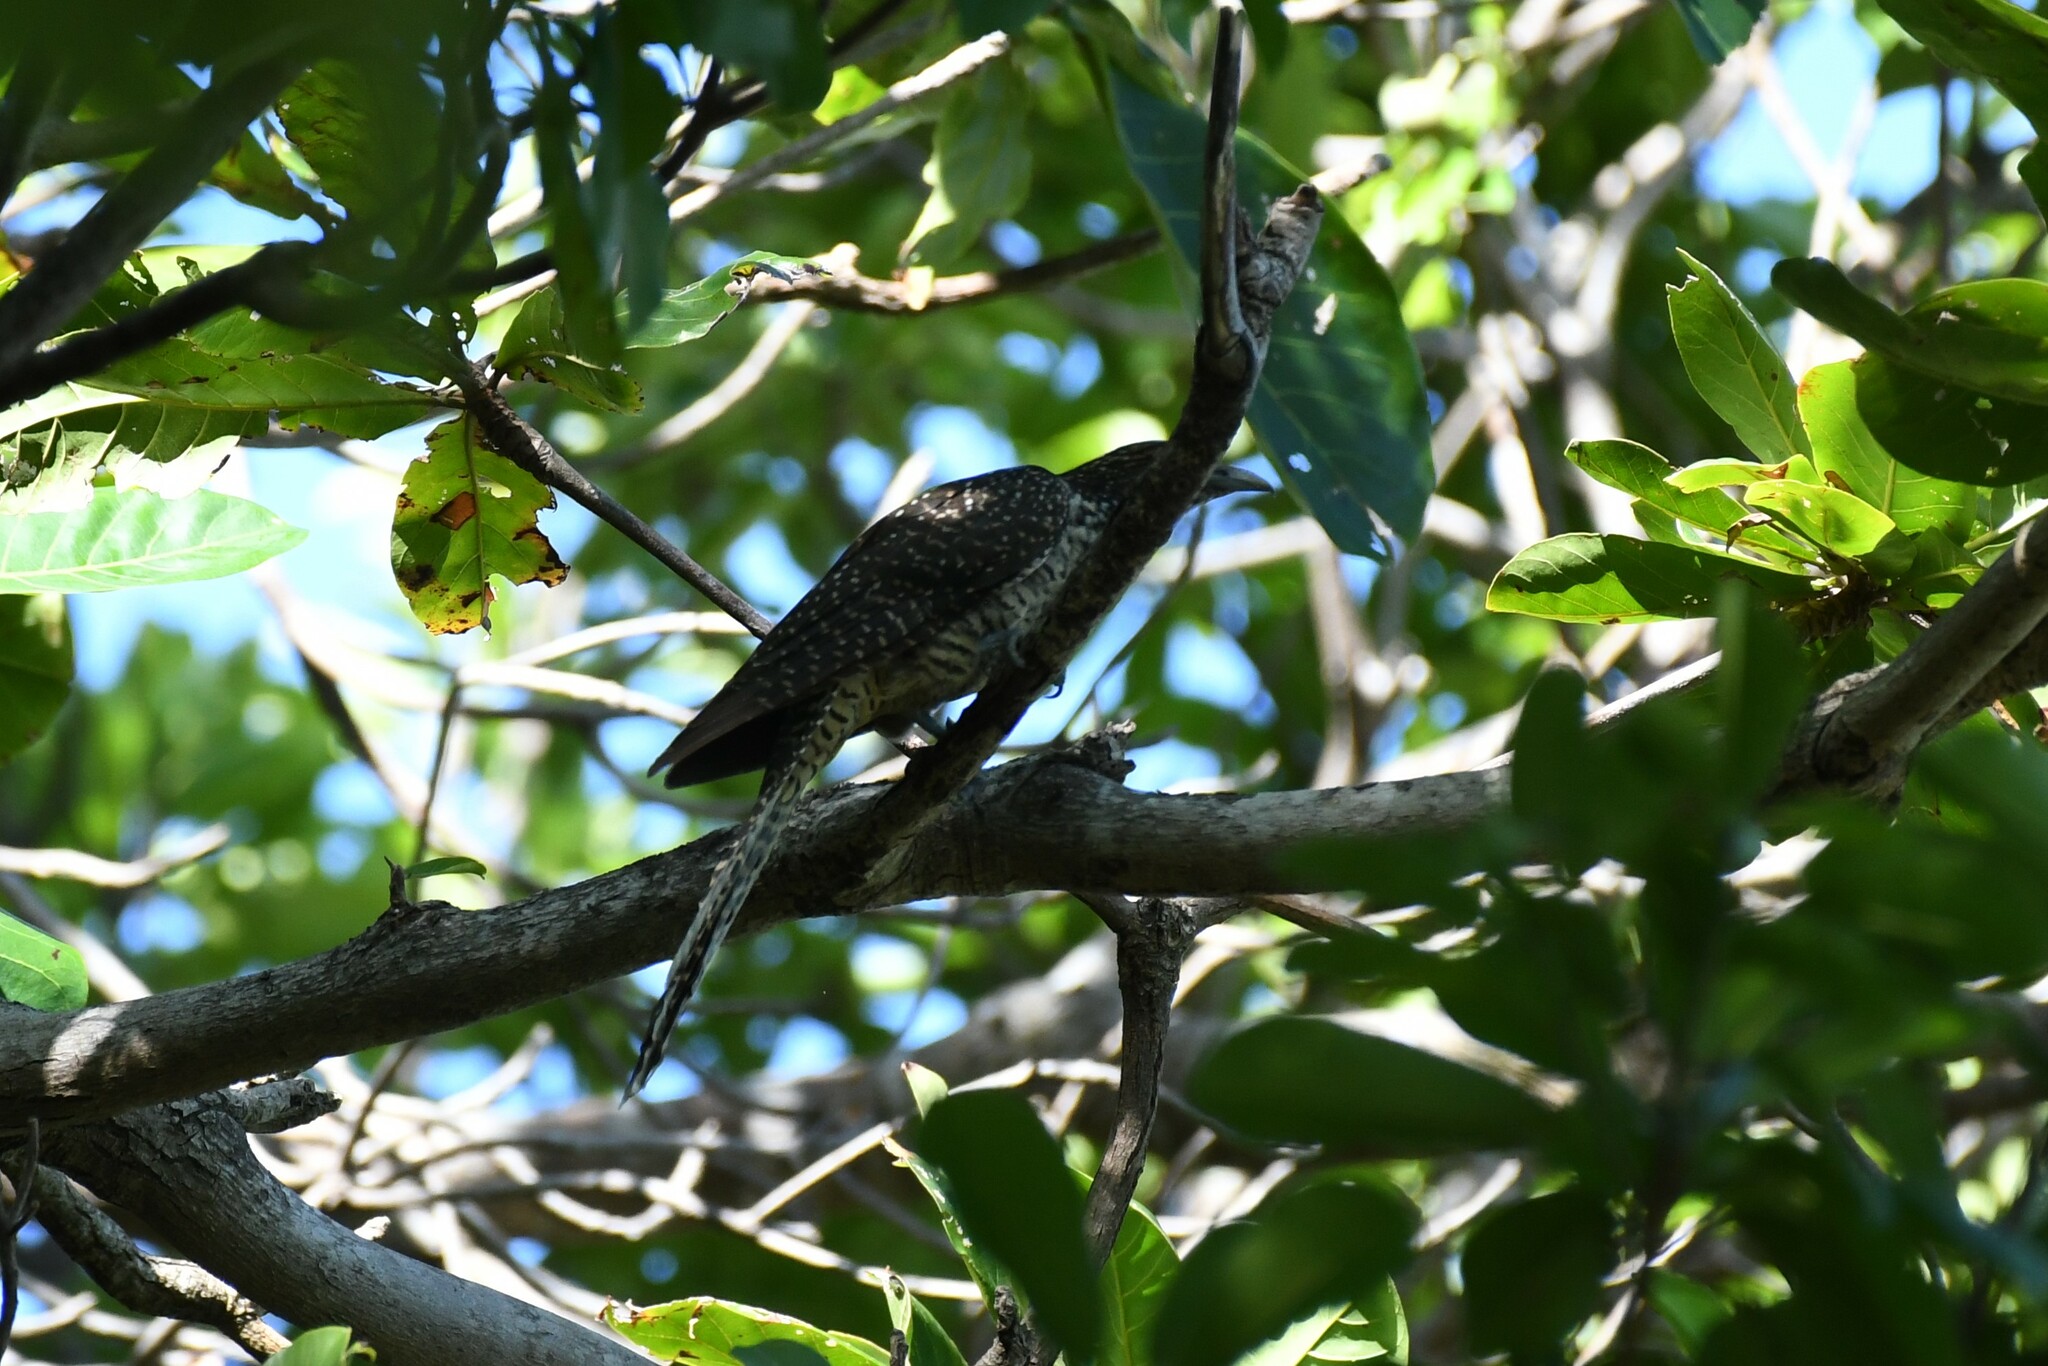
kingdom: Animalia
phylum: Chordata
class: Aves
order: Cuculiformes
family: Cuculidae
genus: Eudynamys
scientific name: Eudynamys scolopaceus
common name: Asian koel
